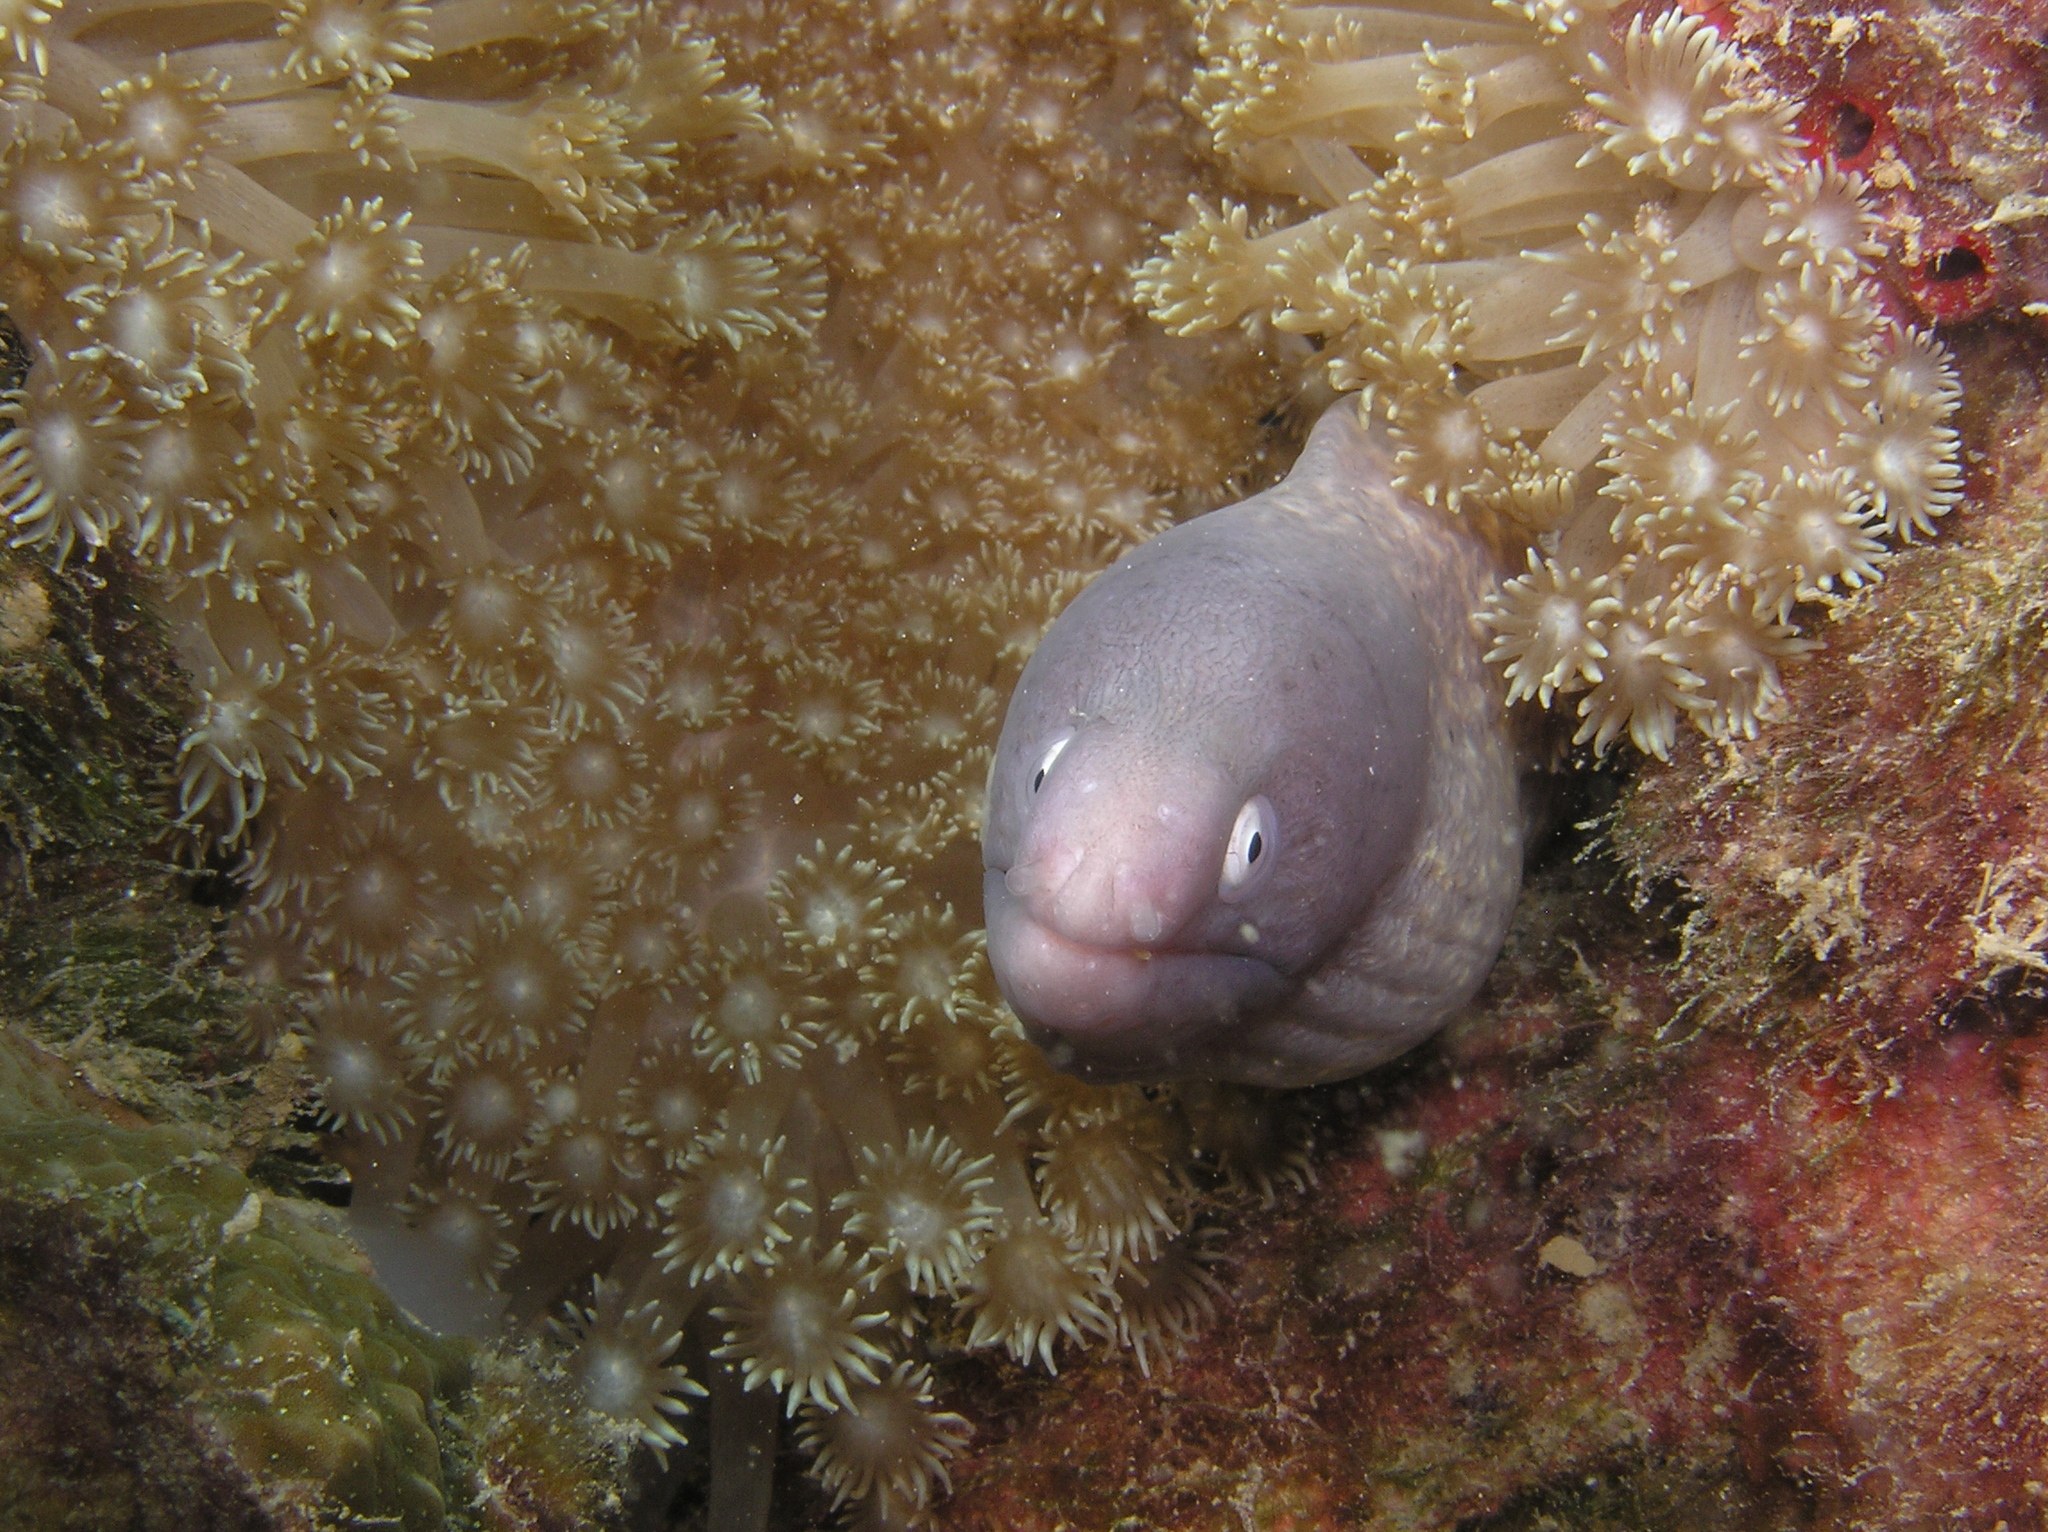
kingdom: Animalia
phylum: Chordata
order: Anguilliformes
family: Muraenidae
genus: Gymnothorax
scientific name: Gymnothorax thyrsoideus
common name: Greyface moray
